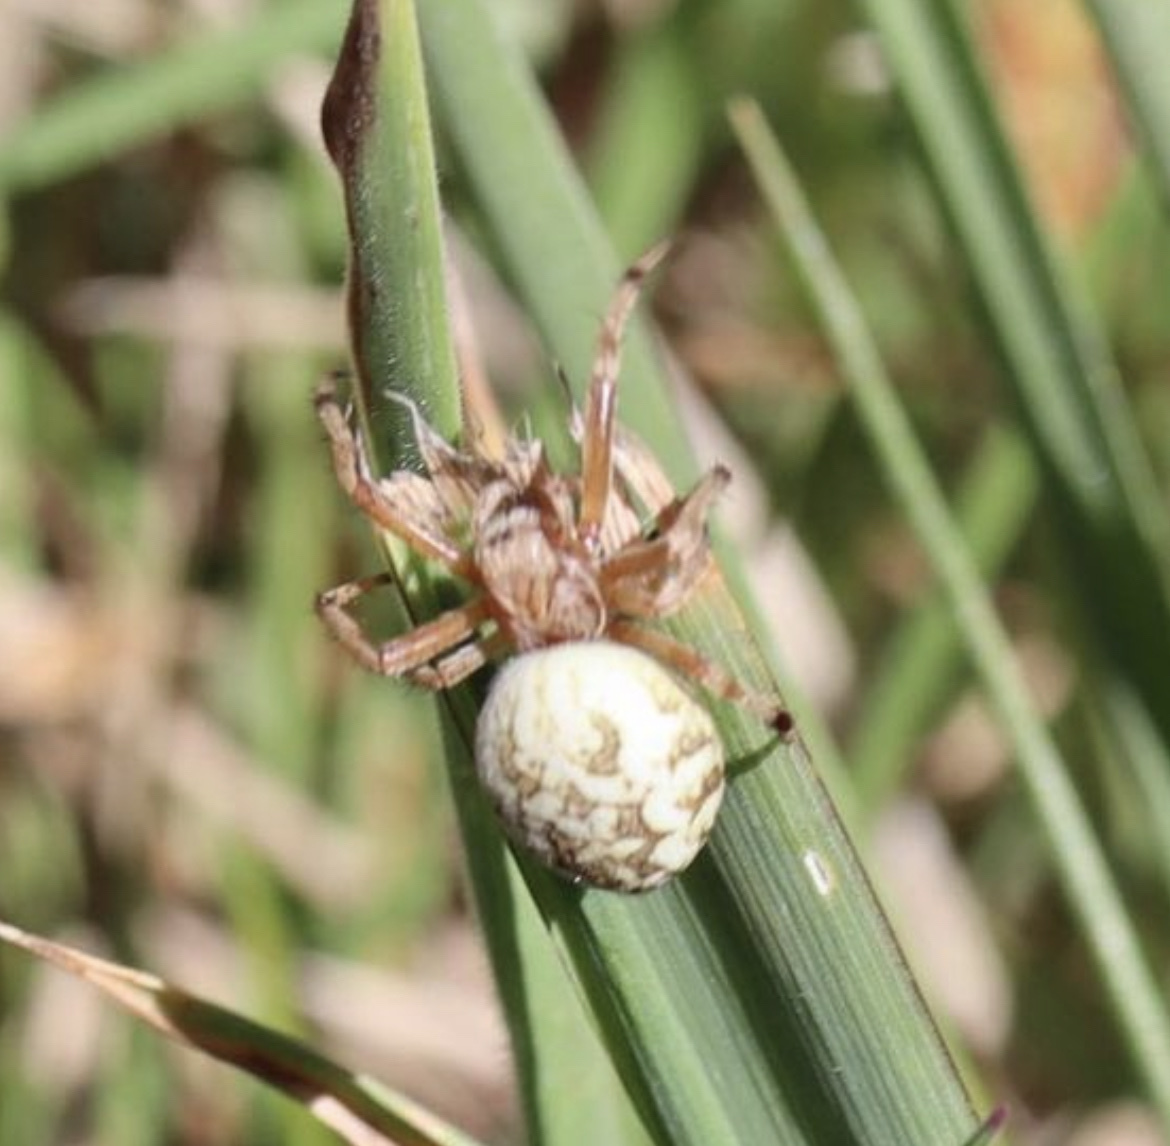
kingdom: Animalia
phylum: Arthropoda
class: Arachnida
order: Araneae
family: Araneidae
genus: Salsa
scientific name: Salsa fuliginata
